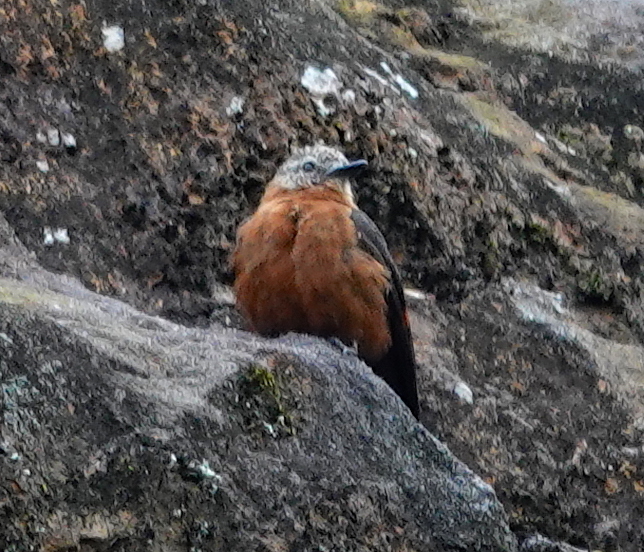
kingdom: Animalia
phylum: Chordata
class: Aves
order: Passeriformes
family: Tyrannidae
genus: Hirundinea
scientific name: Hirundinea ferruginea
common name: Cliff flycatcher
